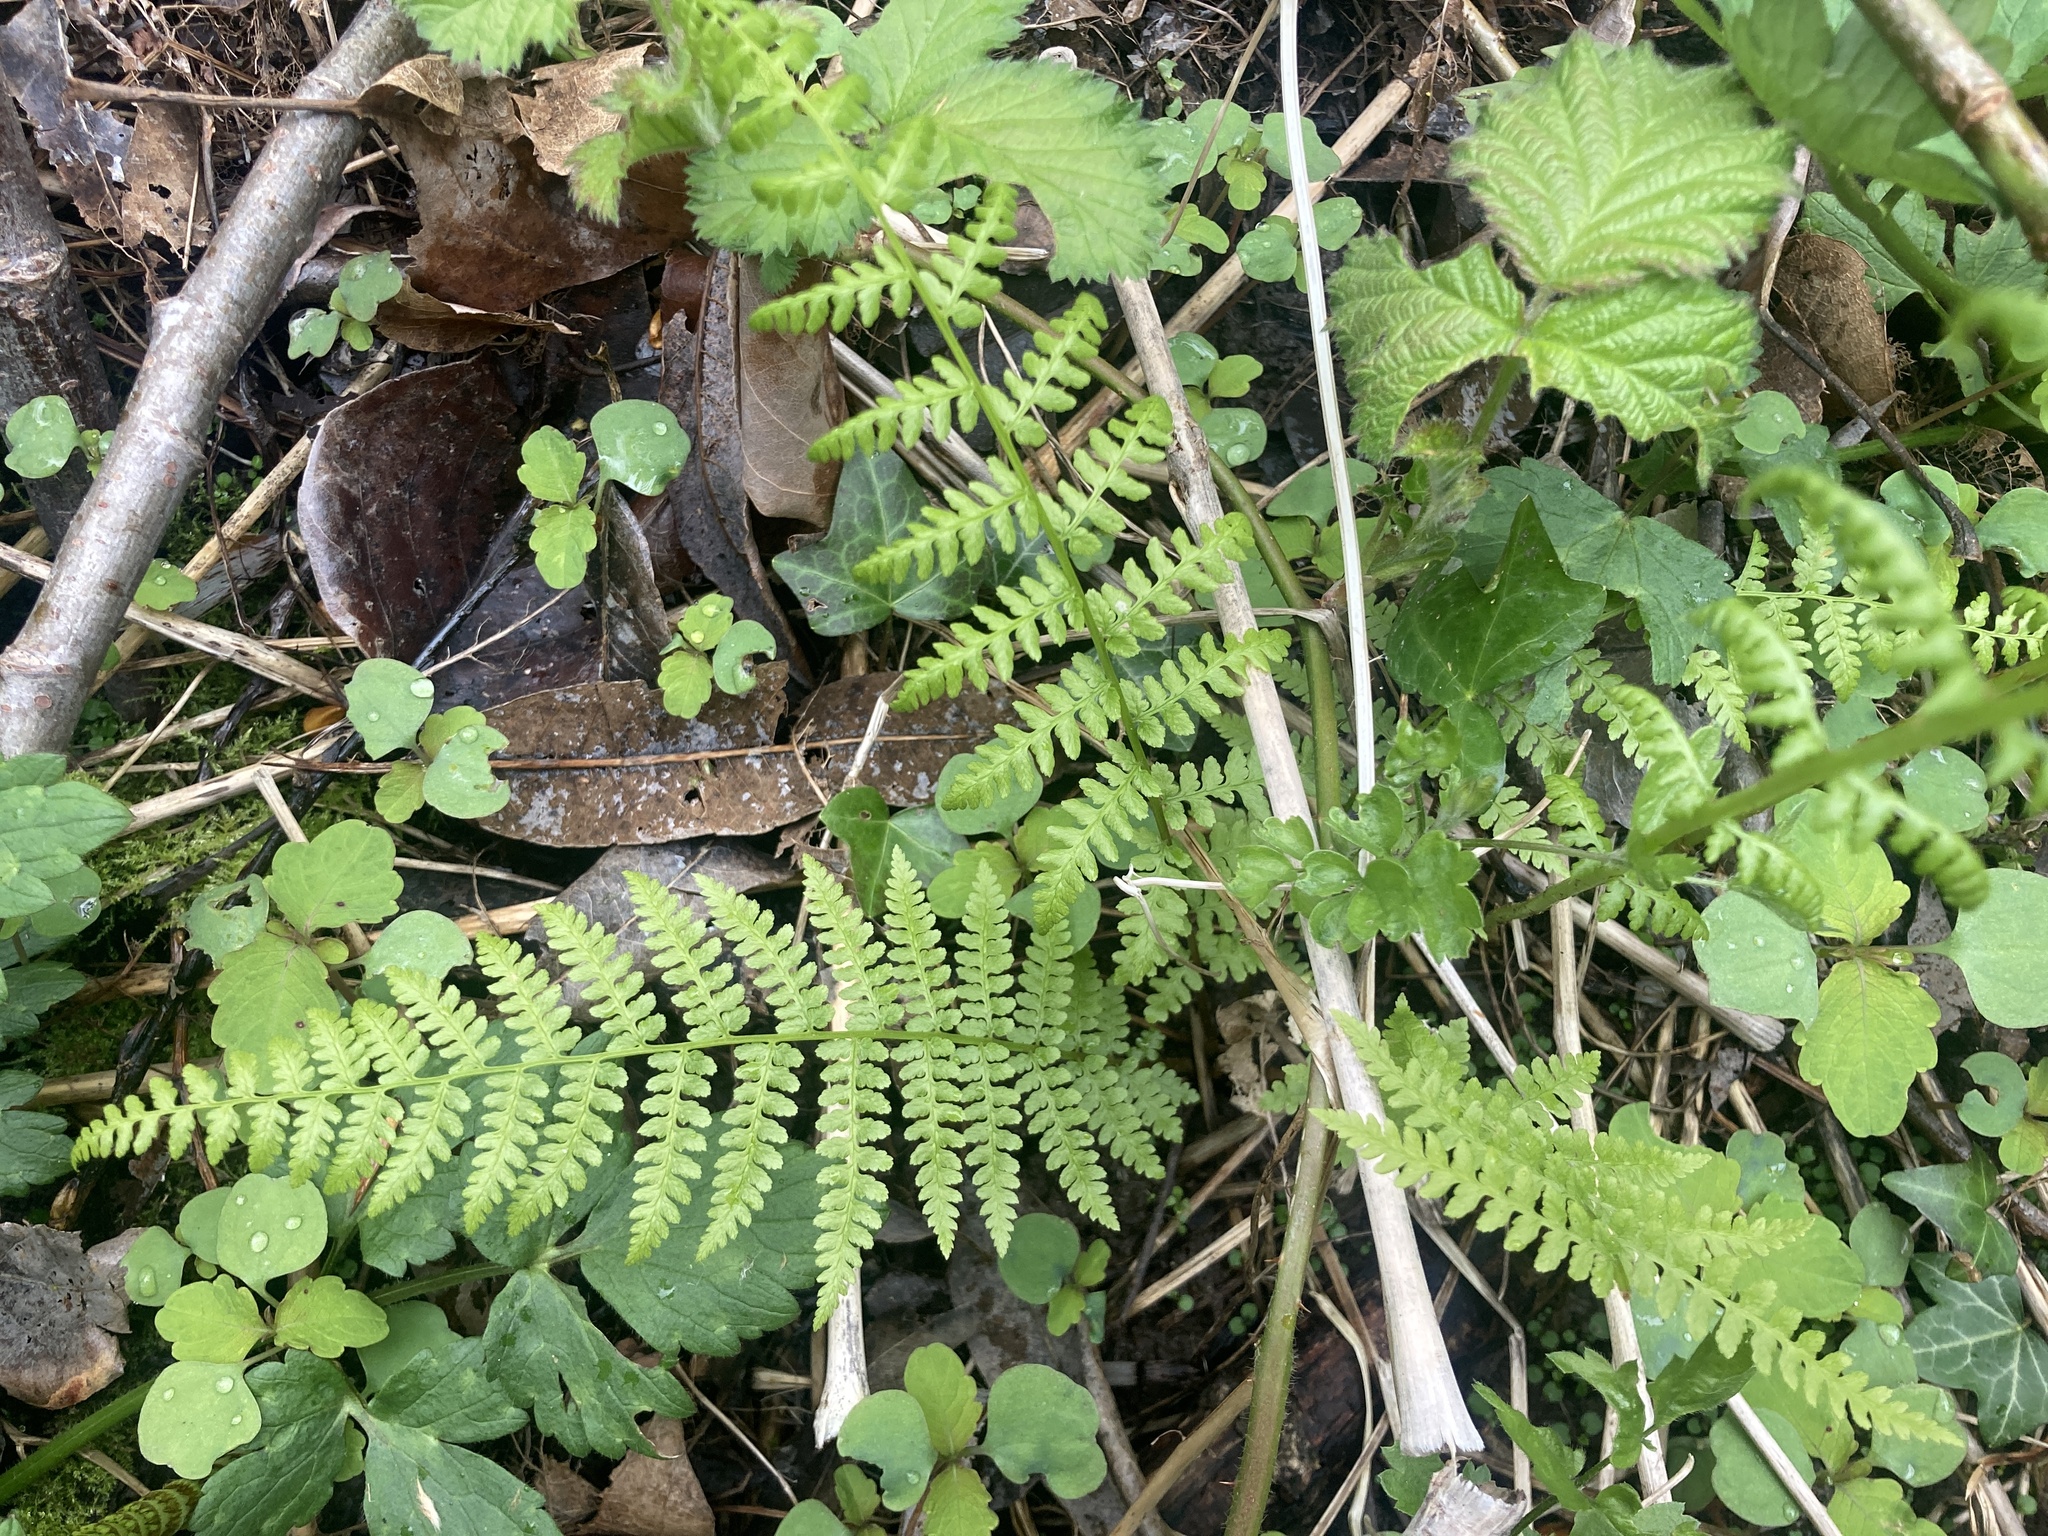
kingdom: Plantae
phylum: Tracheophyta
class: Polypodiopsida
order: Polypodiales
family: Athyriaceae
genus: Athyrium
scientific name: Athyrium filix-femina
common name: Lady fern
